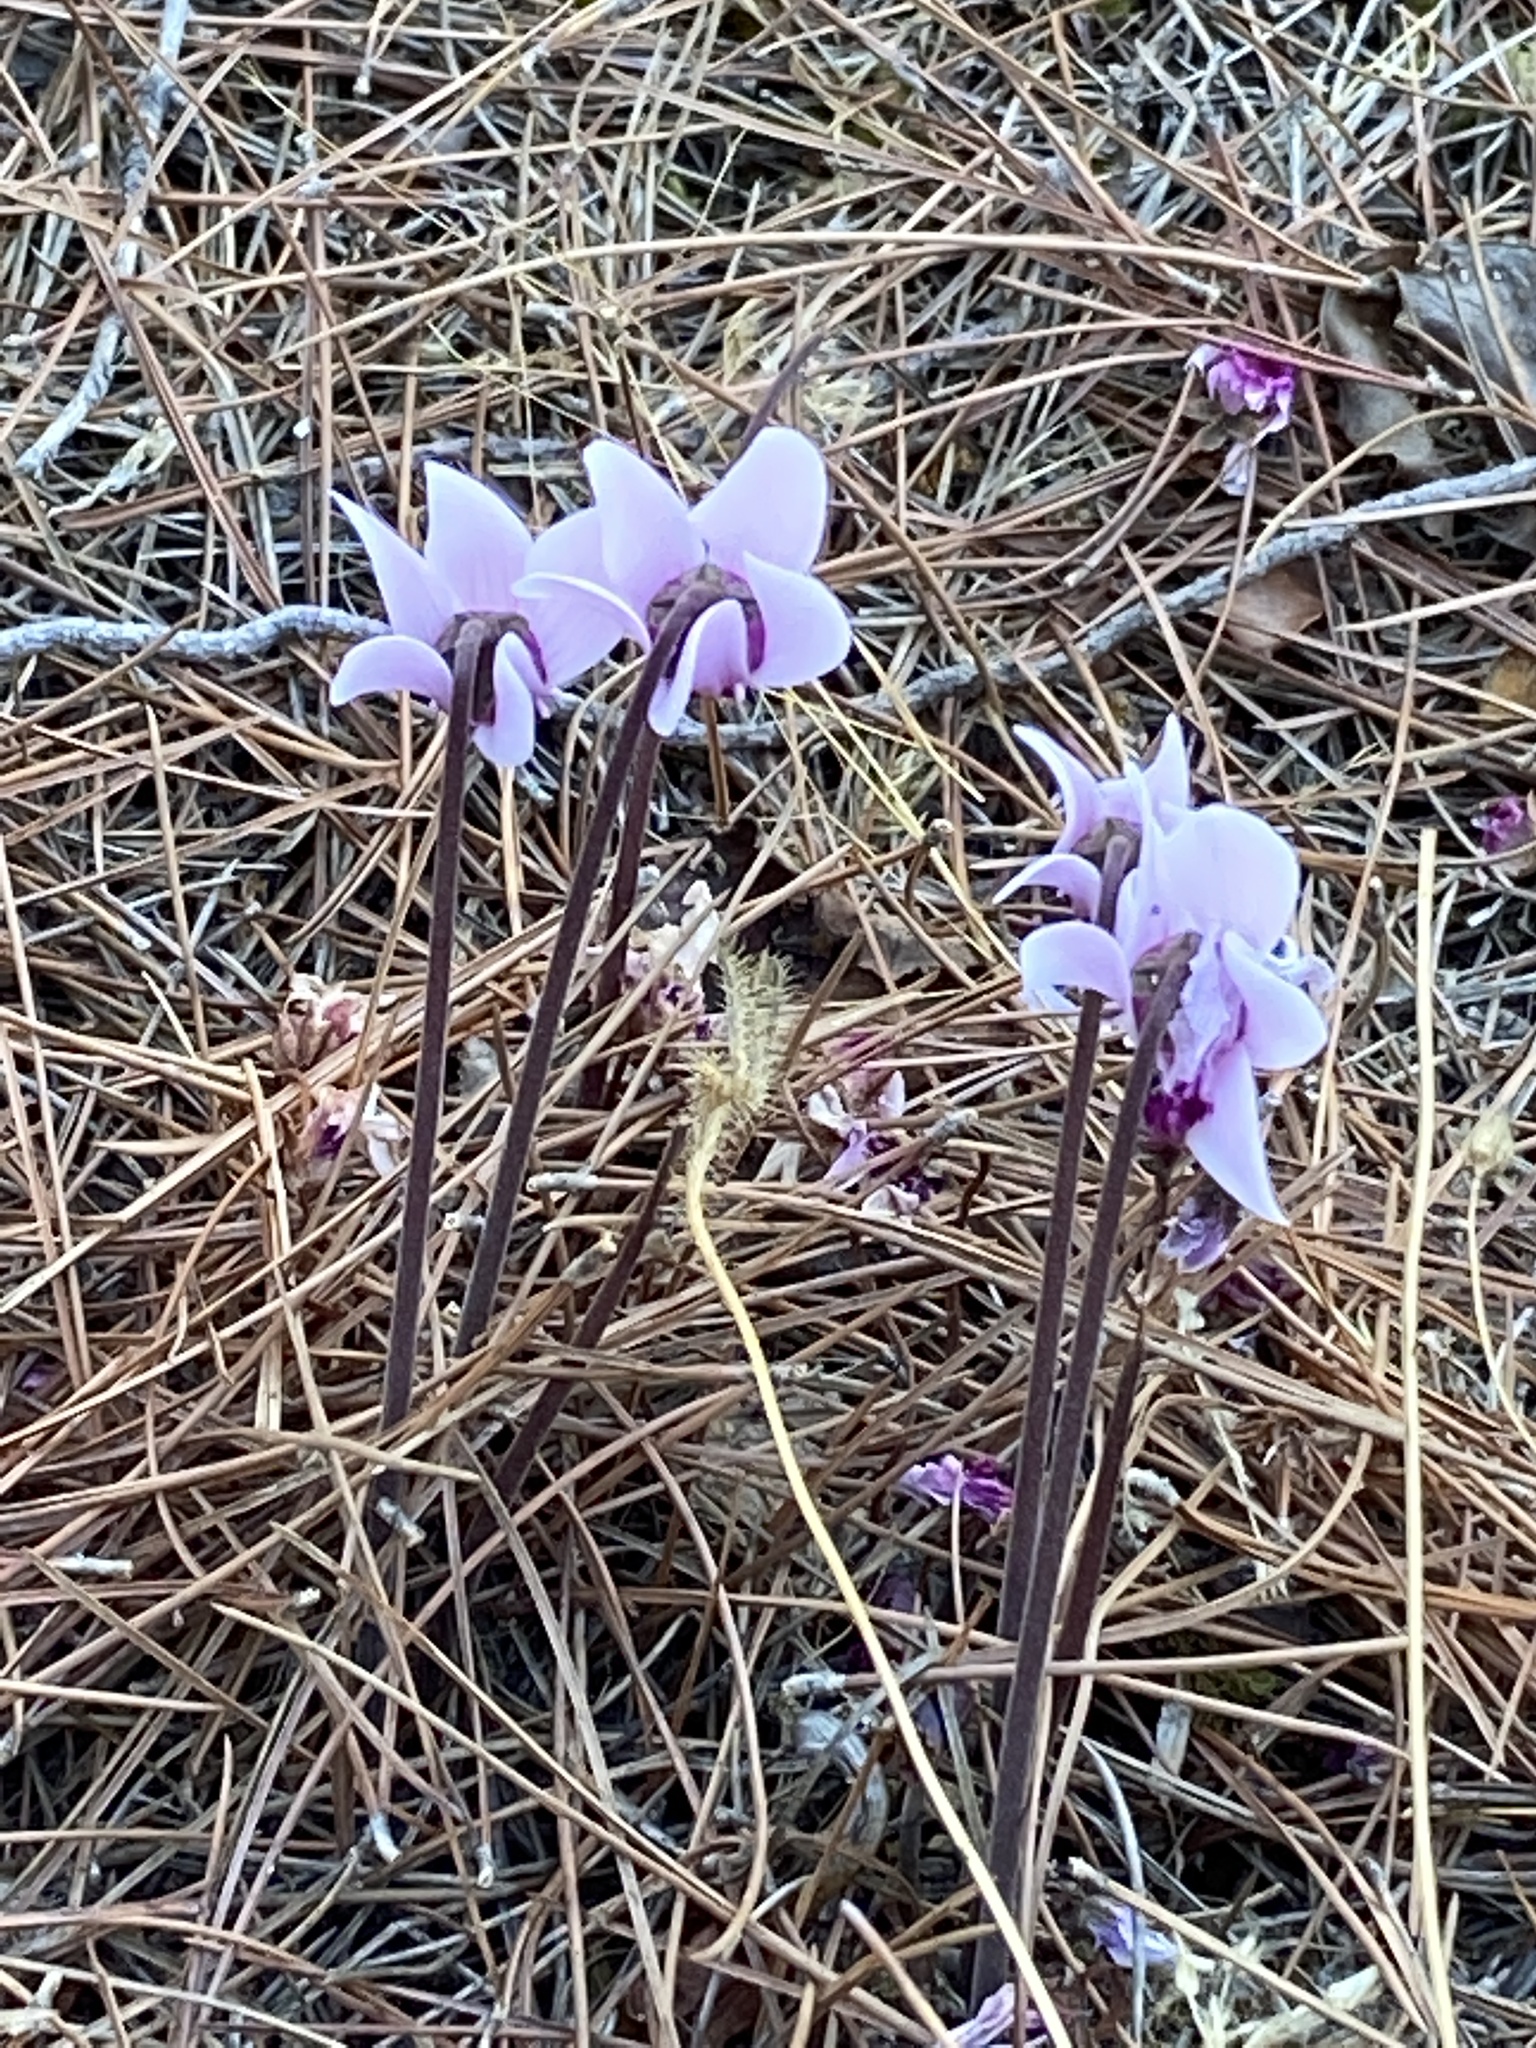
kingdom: Plantae
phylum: Tracheophyta
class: Magnoliopsida
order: Ericales
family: Primulaceae
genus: Cyclamen
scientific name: Cyclamen graecum
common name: Greek cyclamen
